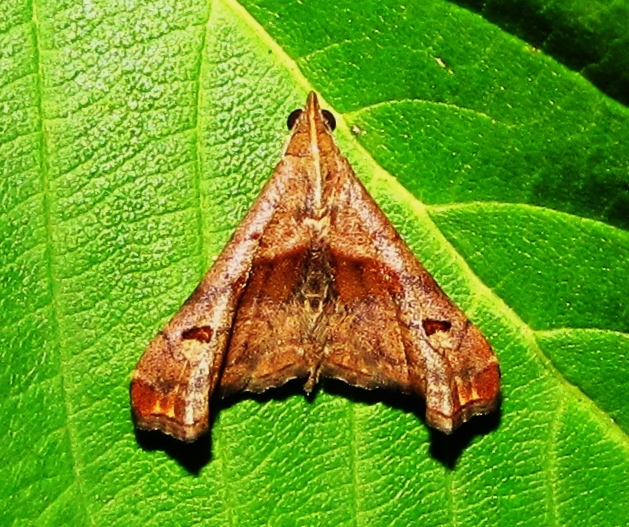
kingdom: Animalia
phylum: Arthropoda
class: Insecta
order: Lepidoptera
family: Erebidae
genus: Palthis
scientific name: Palthis angulalis
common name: Dark-spotted palthis moth
